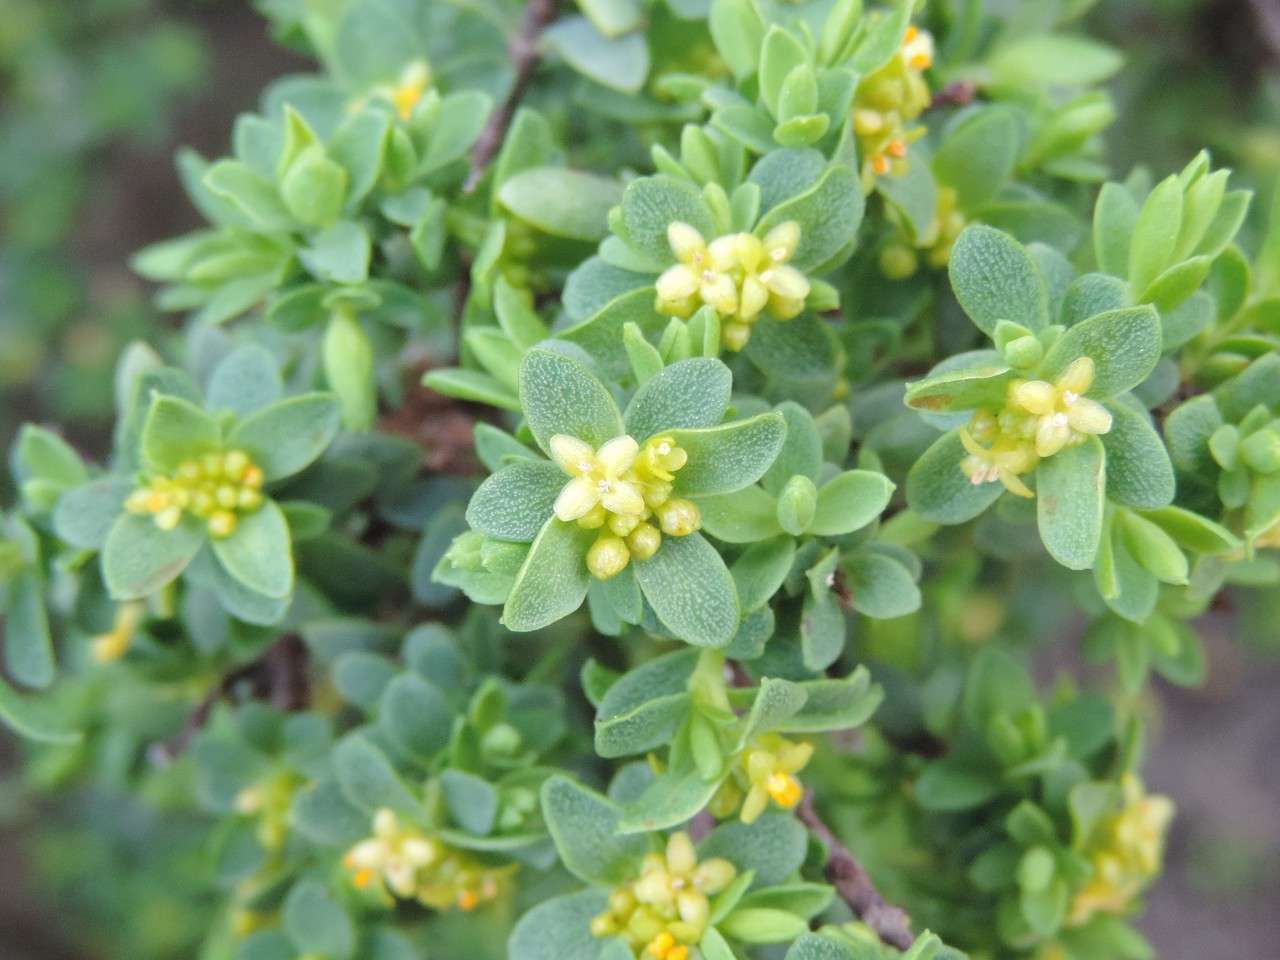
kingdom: Plantae
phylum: Tracheophyta
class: Magnoliopsida
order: Malvales
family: Thymelaeaceae
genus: Pimelea
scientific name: Pimelea serpyllifolia
